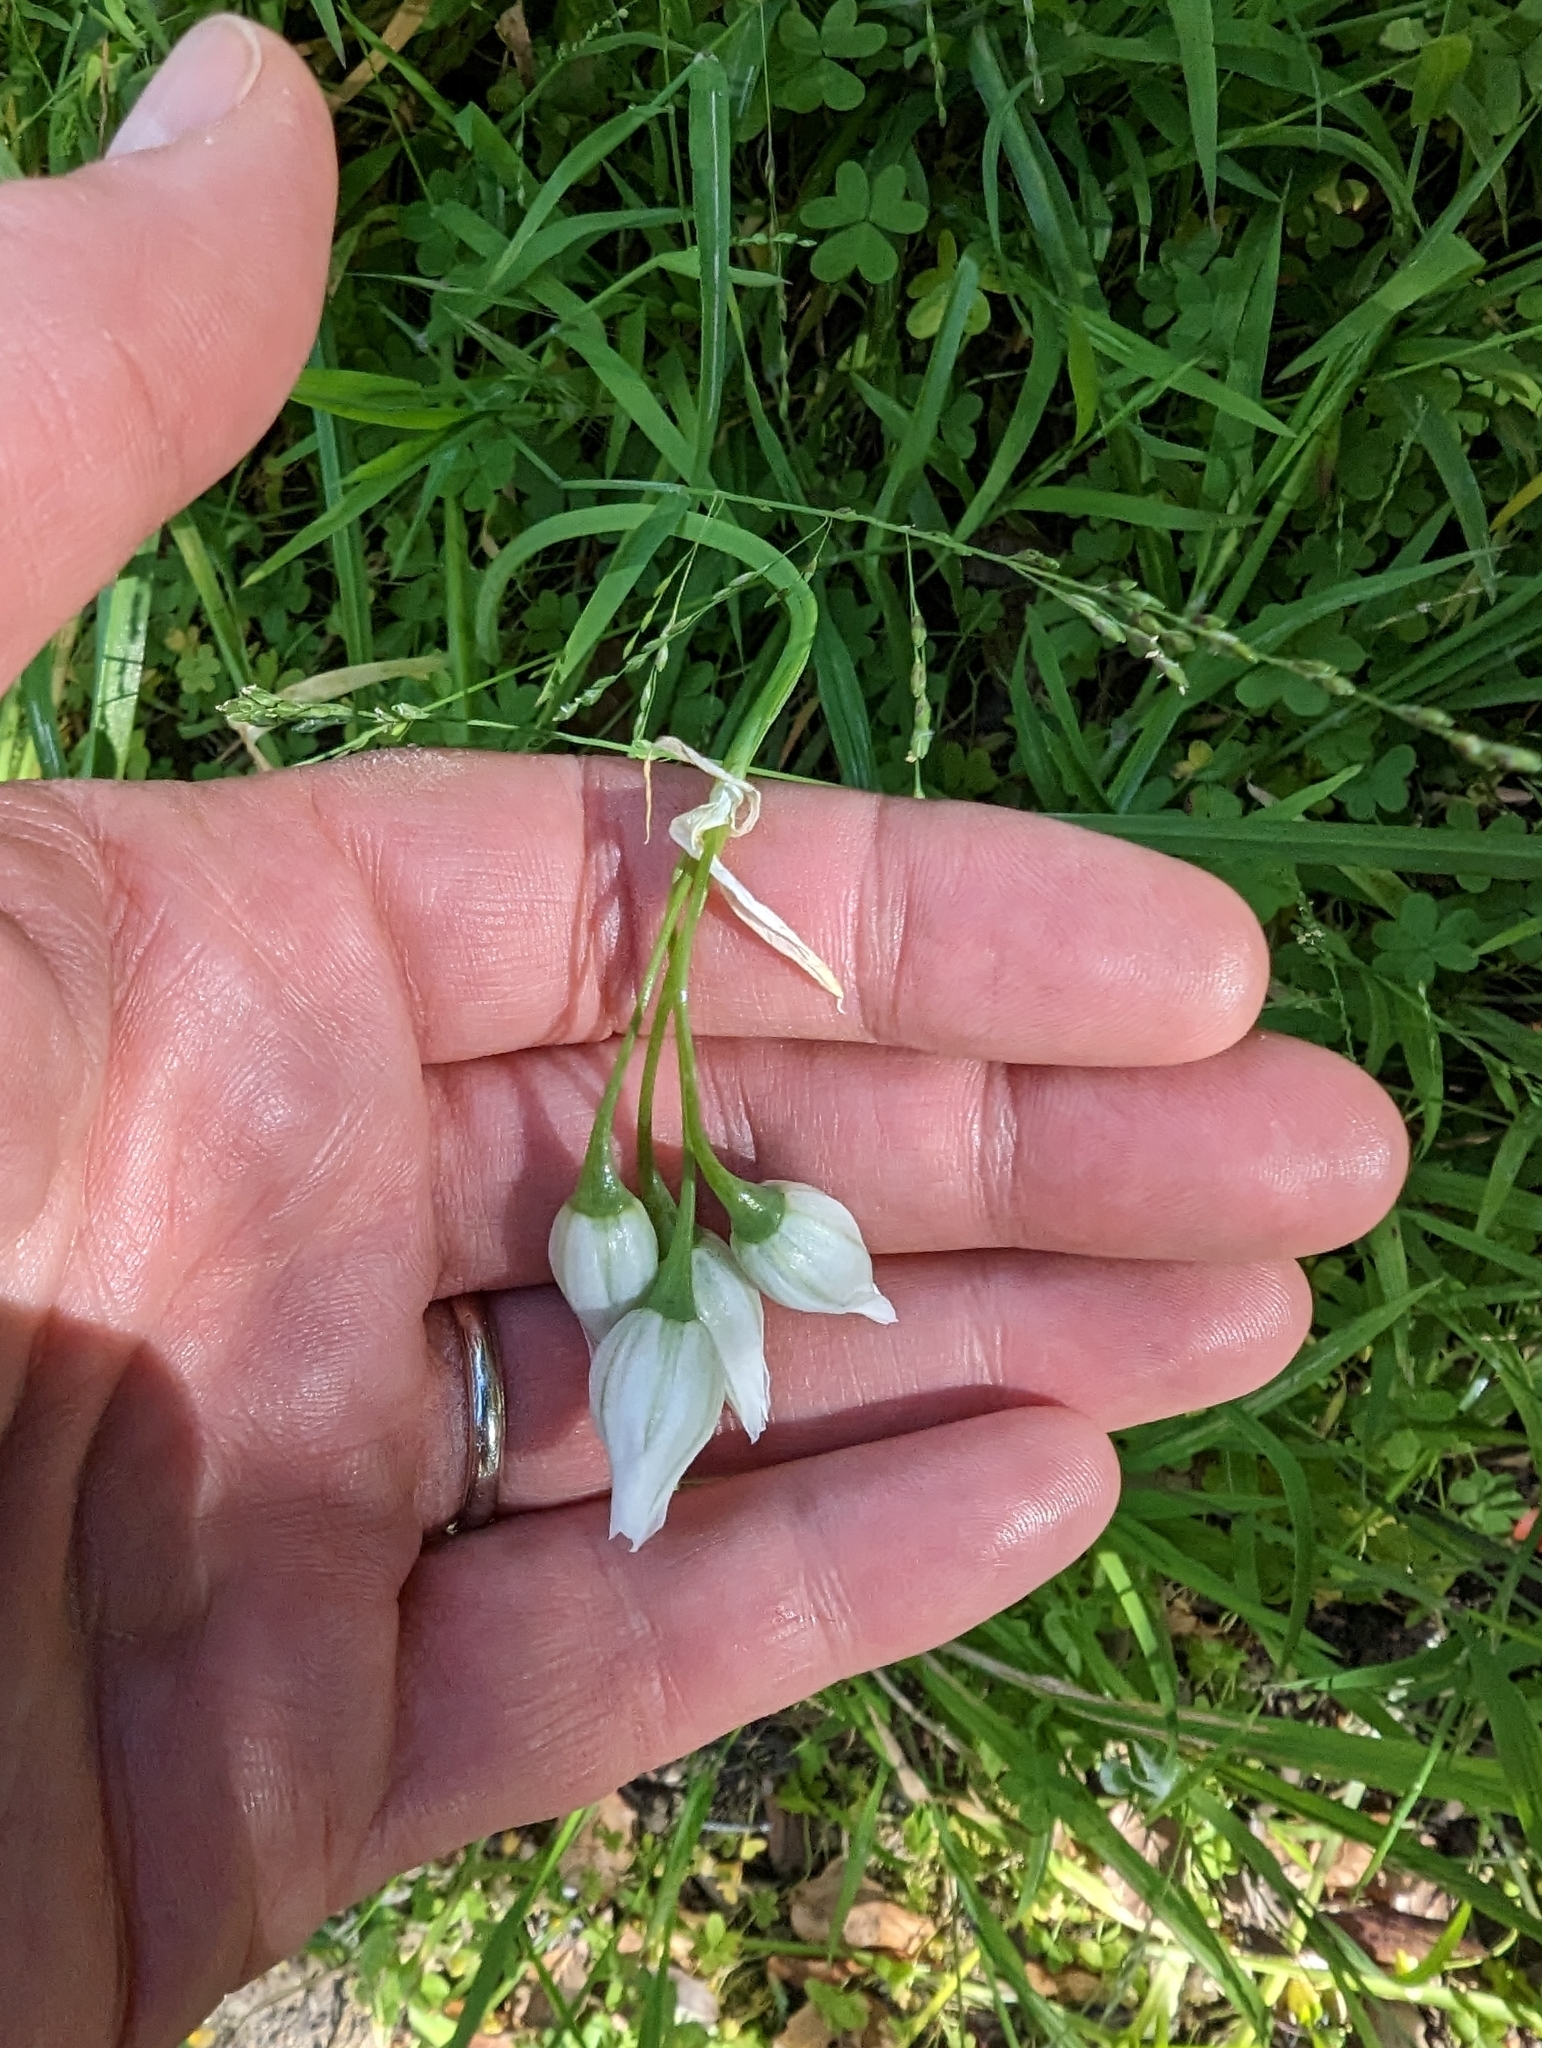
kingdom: Plantae
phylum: Tracheophyta
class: Liliopsida
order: Asparagales
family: Amaryllidaceae
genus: Allium
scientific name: Allium triquetrum
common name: Three-cornered garlic
